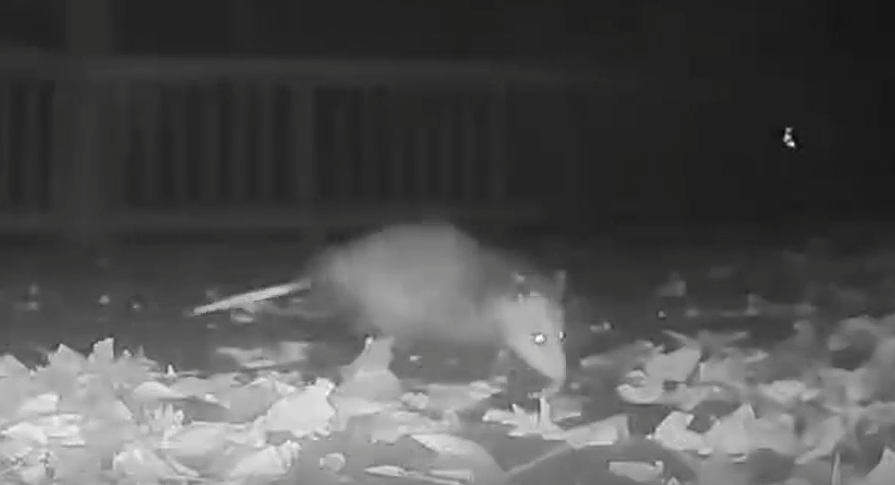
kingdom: Animalia
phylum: Chordata
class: Mammalia
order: Didelphimorphia
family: Didelphidae
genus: Didelphis
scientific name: Didelphis virginiana
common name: Virginia opossum
